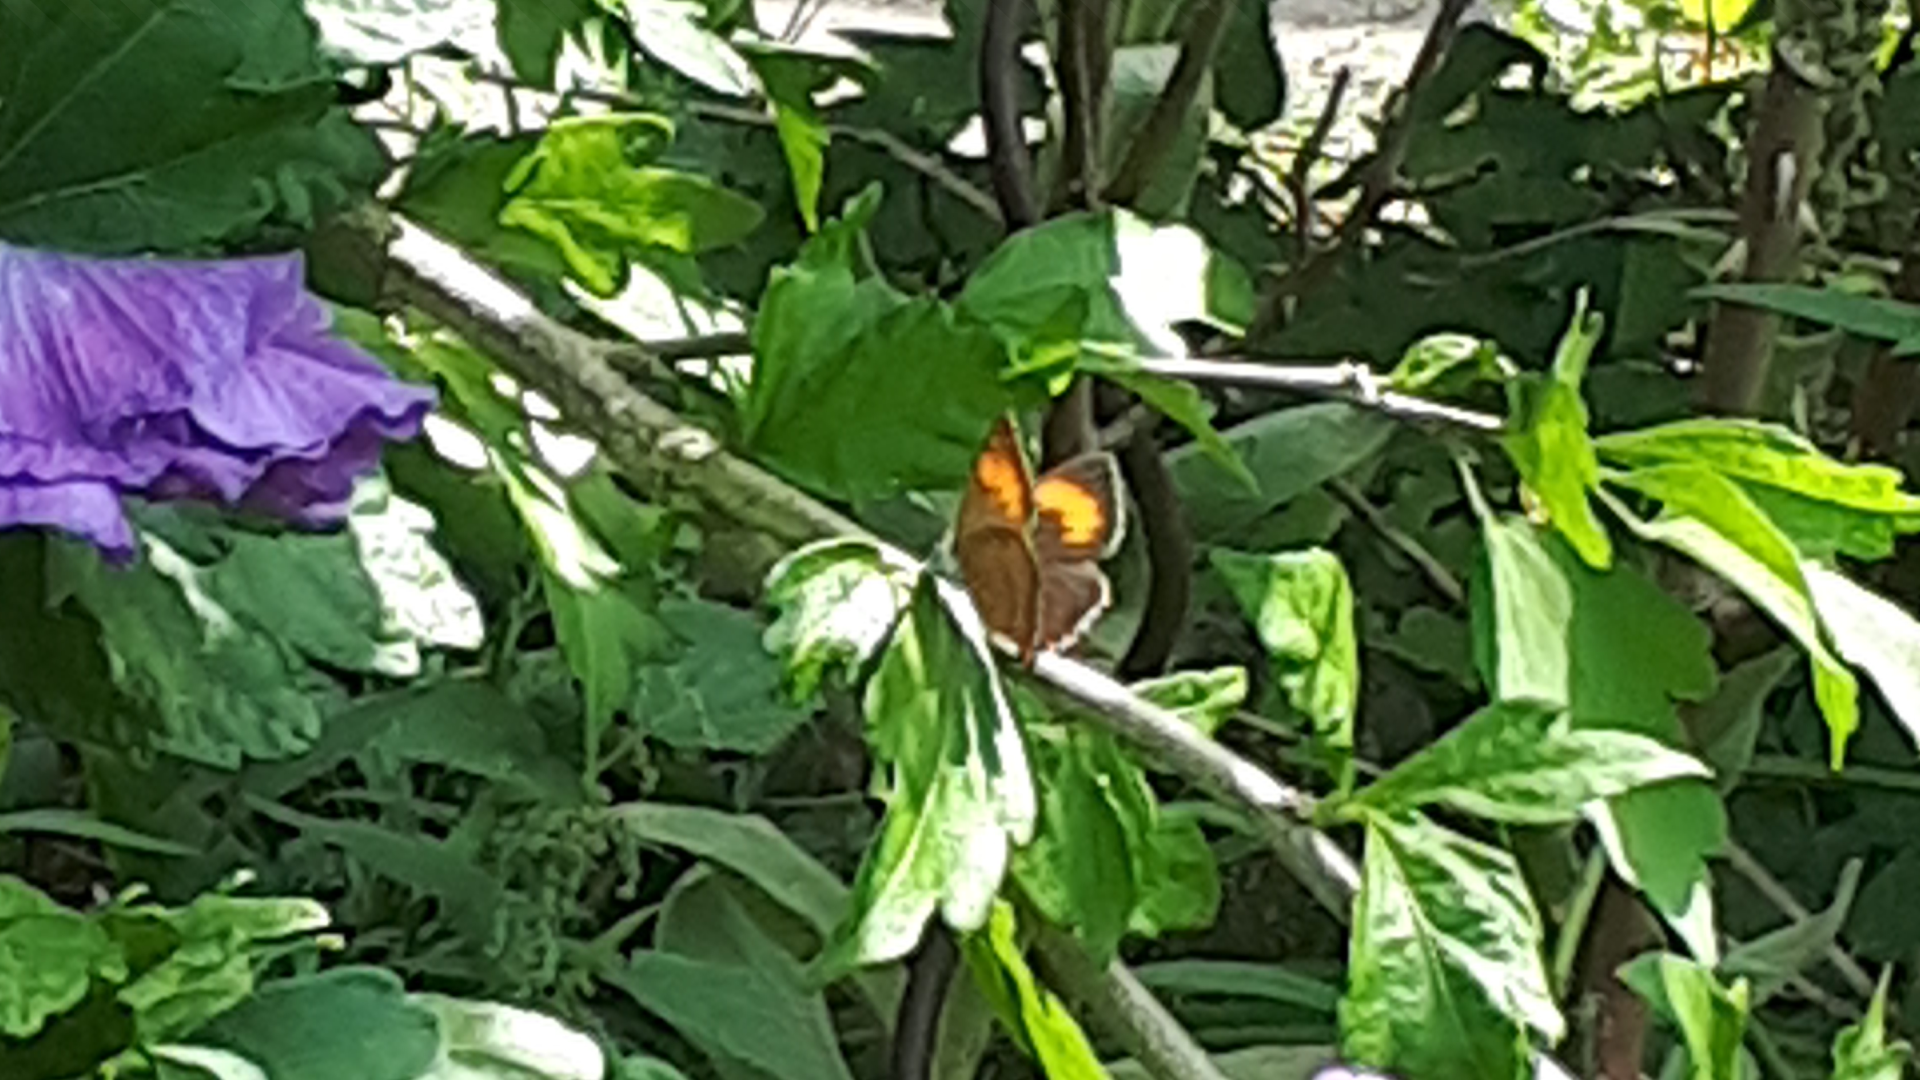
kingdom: Animalia
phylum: Arthropoda
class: Insecta
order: Lepidoptera
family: Lycaenidae
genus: Thecla
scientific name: Thecla betulae
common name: Brown hairstreak
